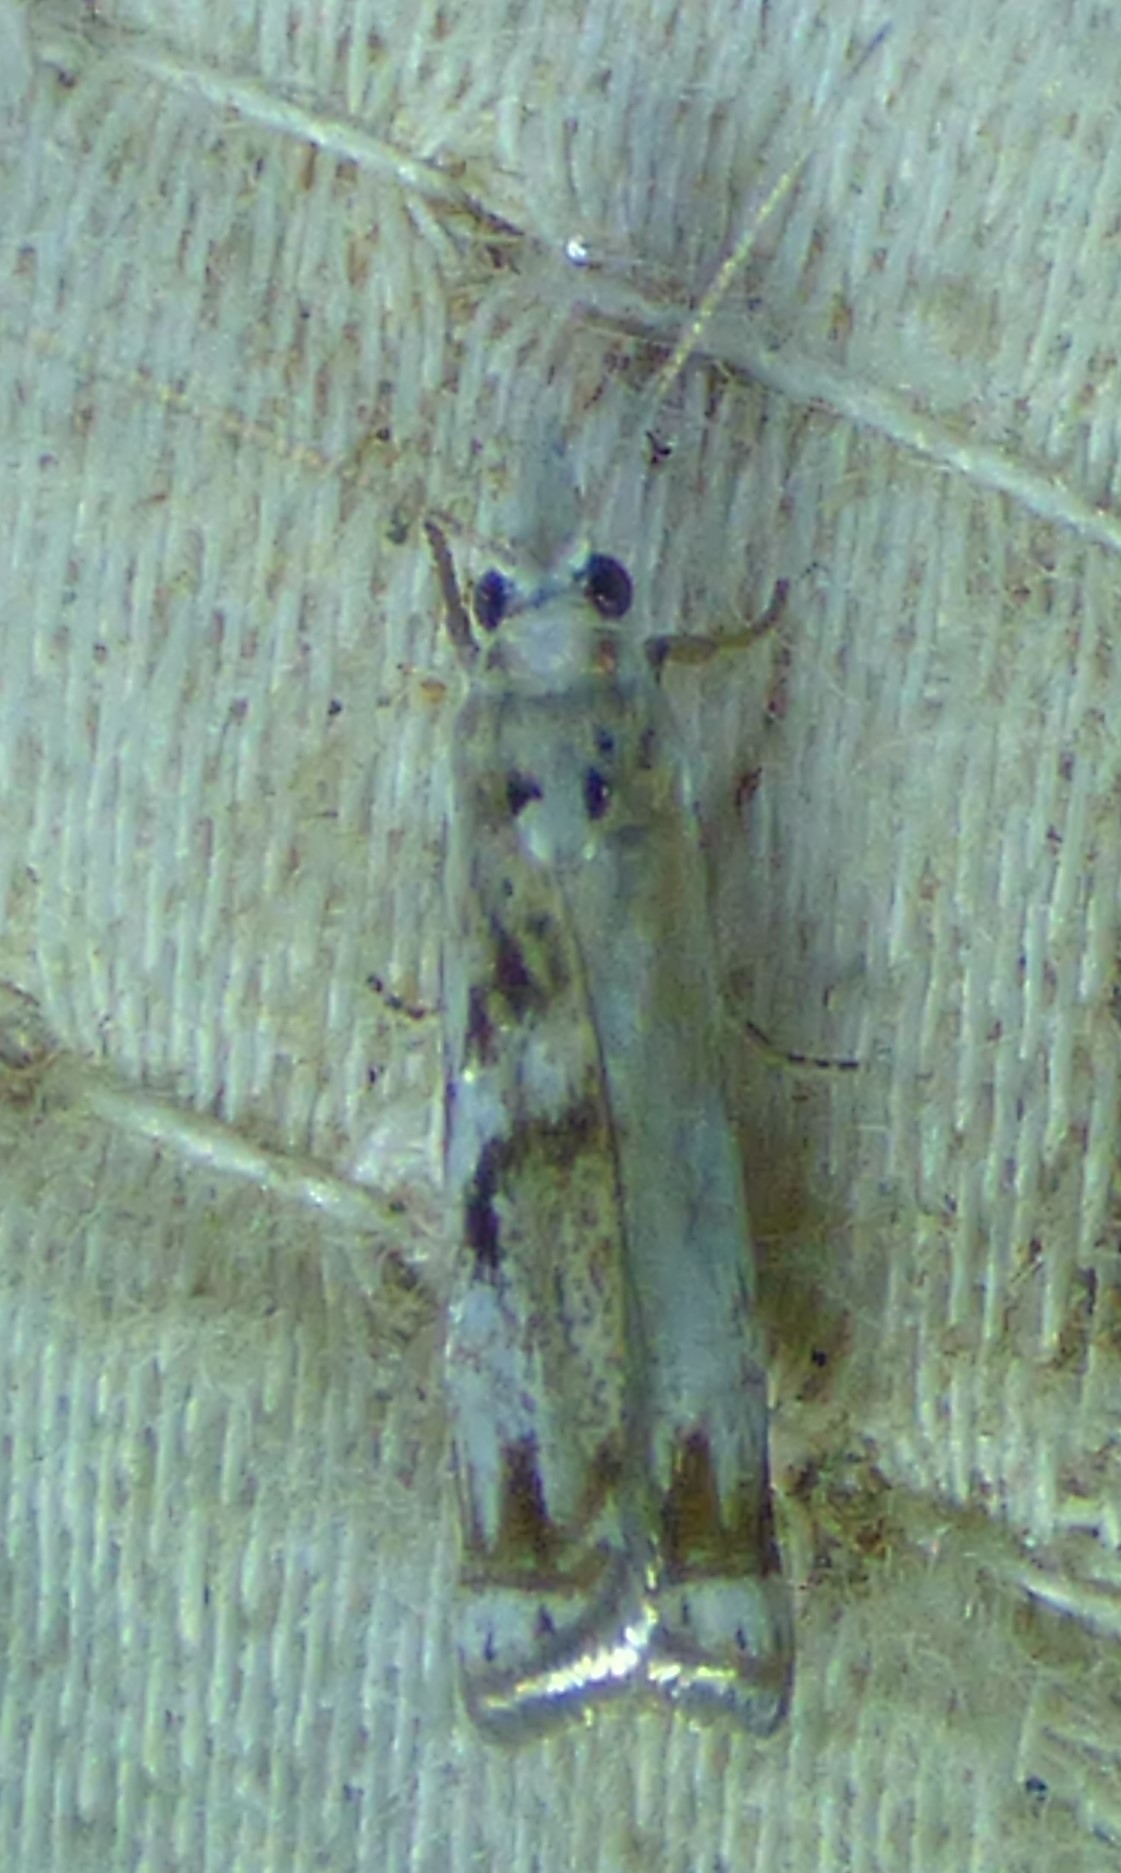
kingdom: Animalia
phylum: Arthropoda
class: Insecta
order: Lepidoptera
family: Crambidae
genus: Microcrambus
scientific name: Microcrambus elegans
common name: Elegant grass-veneer
